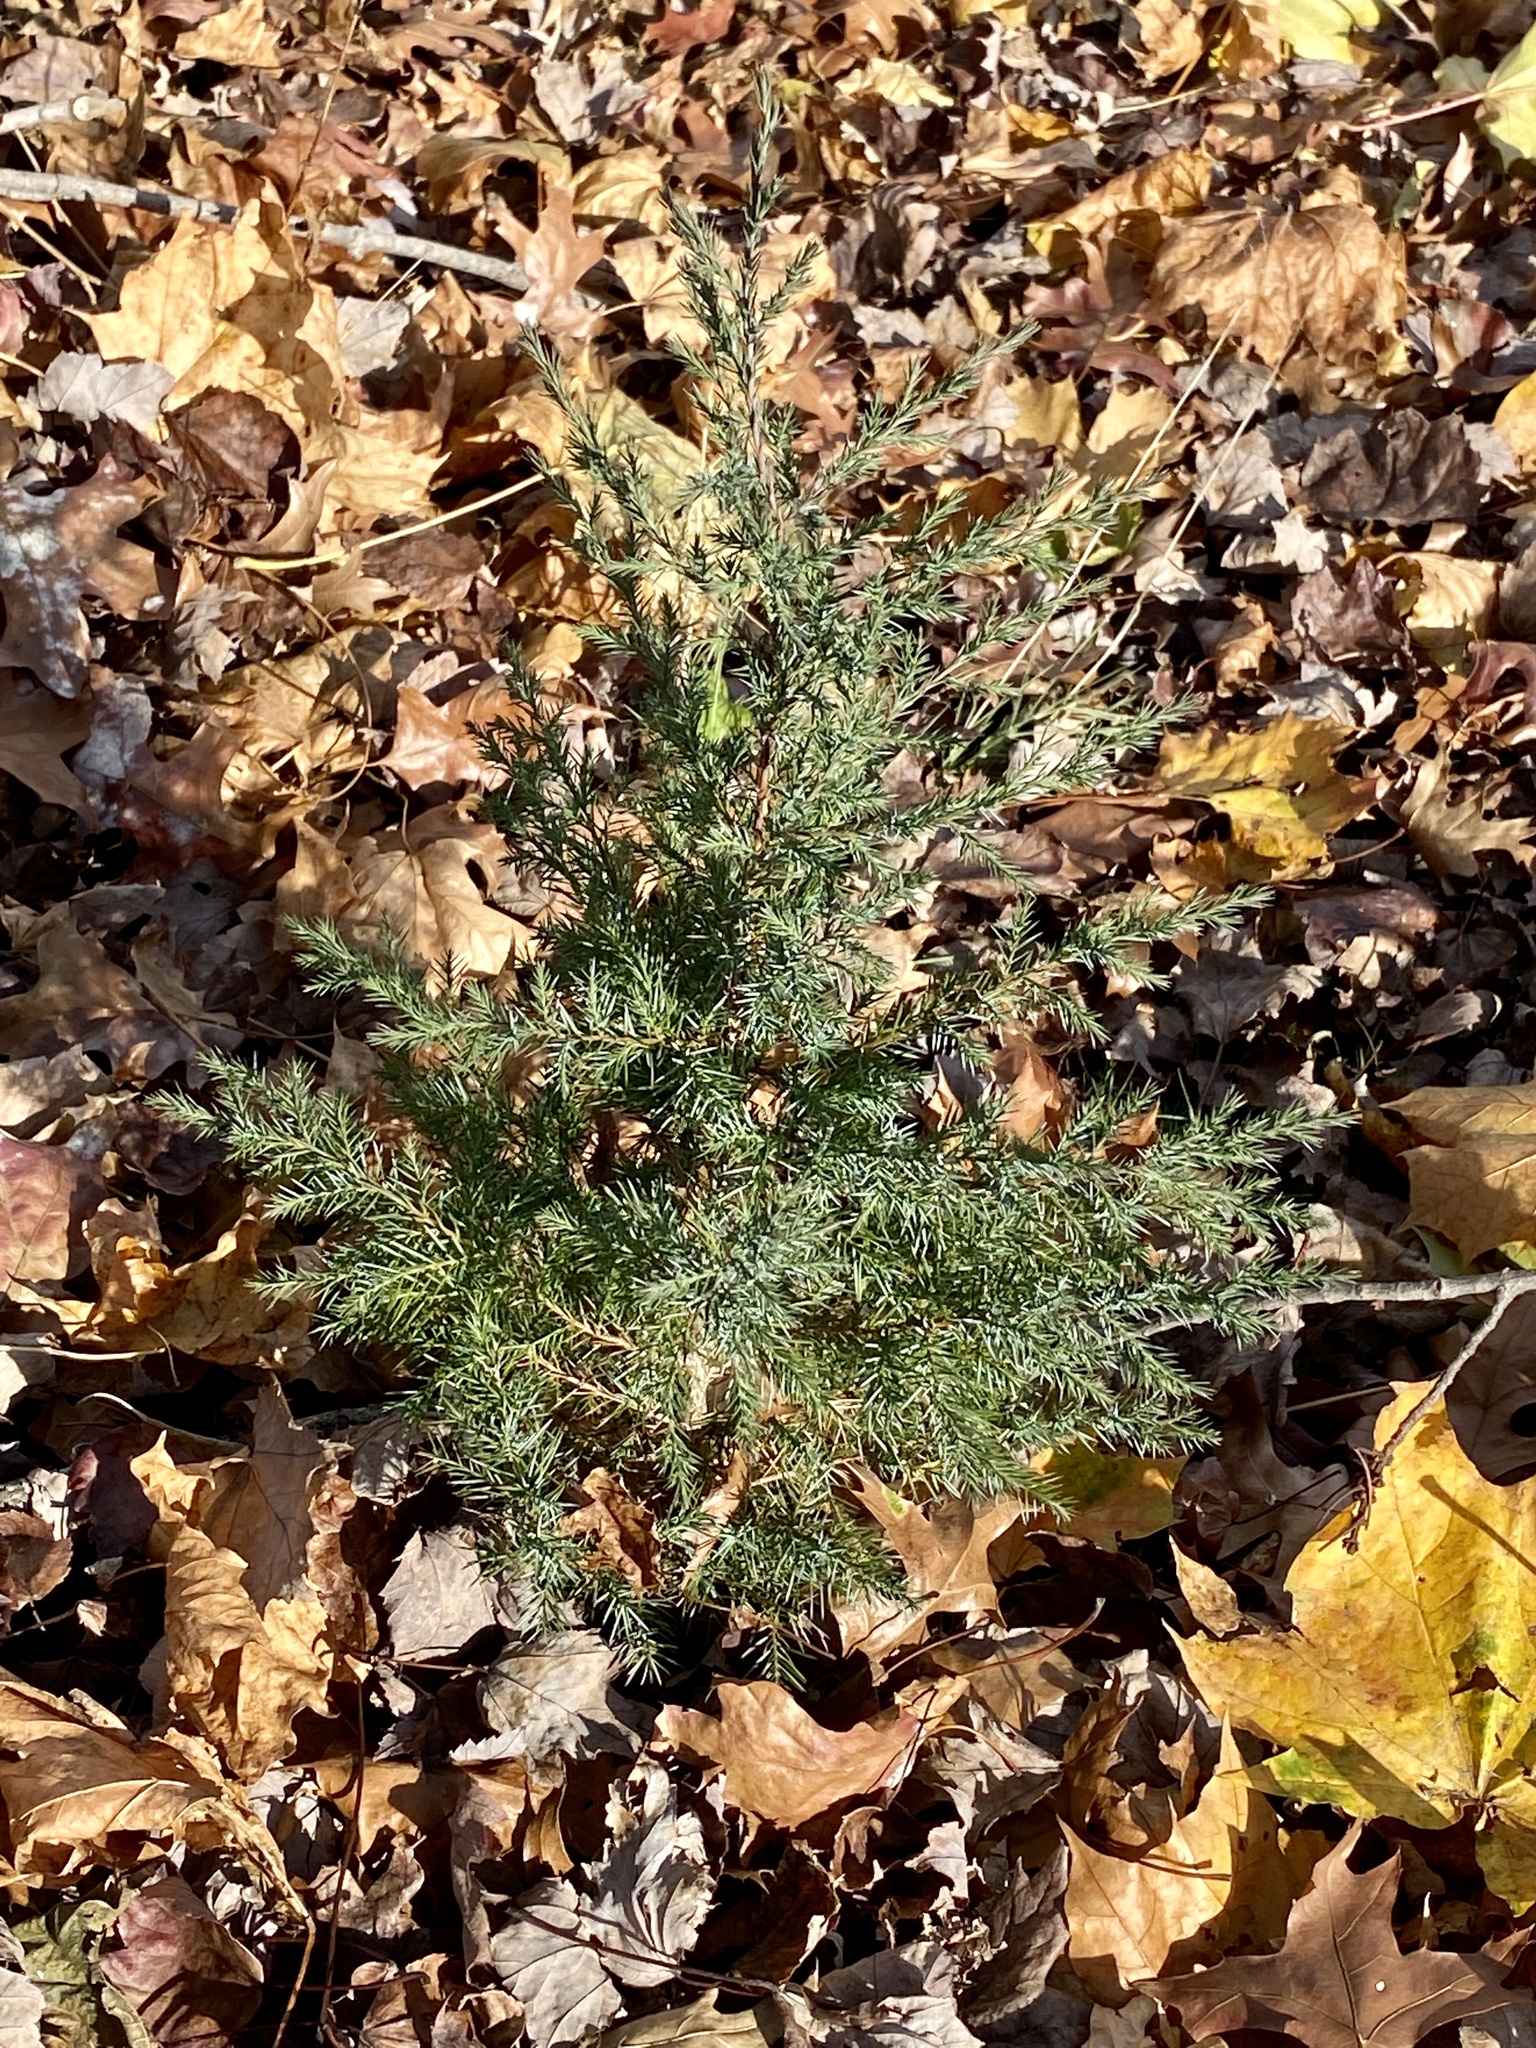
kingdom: Plantae
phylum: Tracheophyta
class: Pinopsida
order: Pinales
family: Cupressaceae
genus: Juniperus
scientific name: Juniperus virginiana
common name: Red juniper
